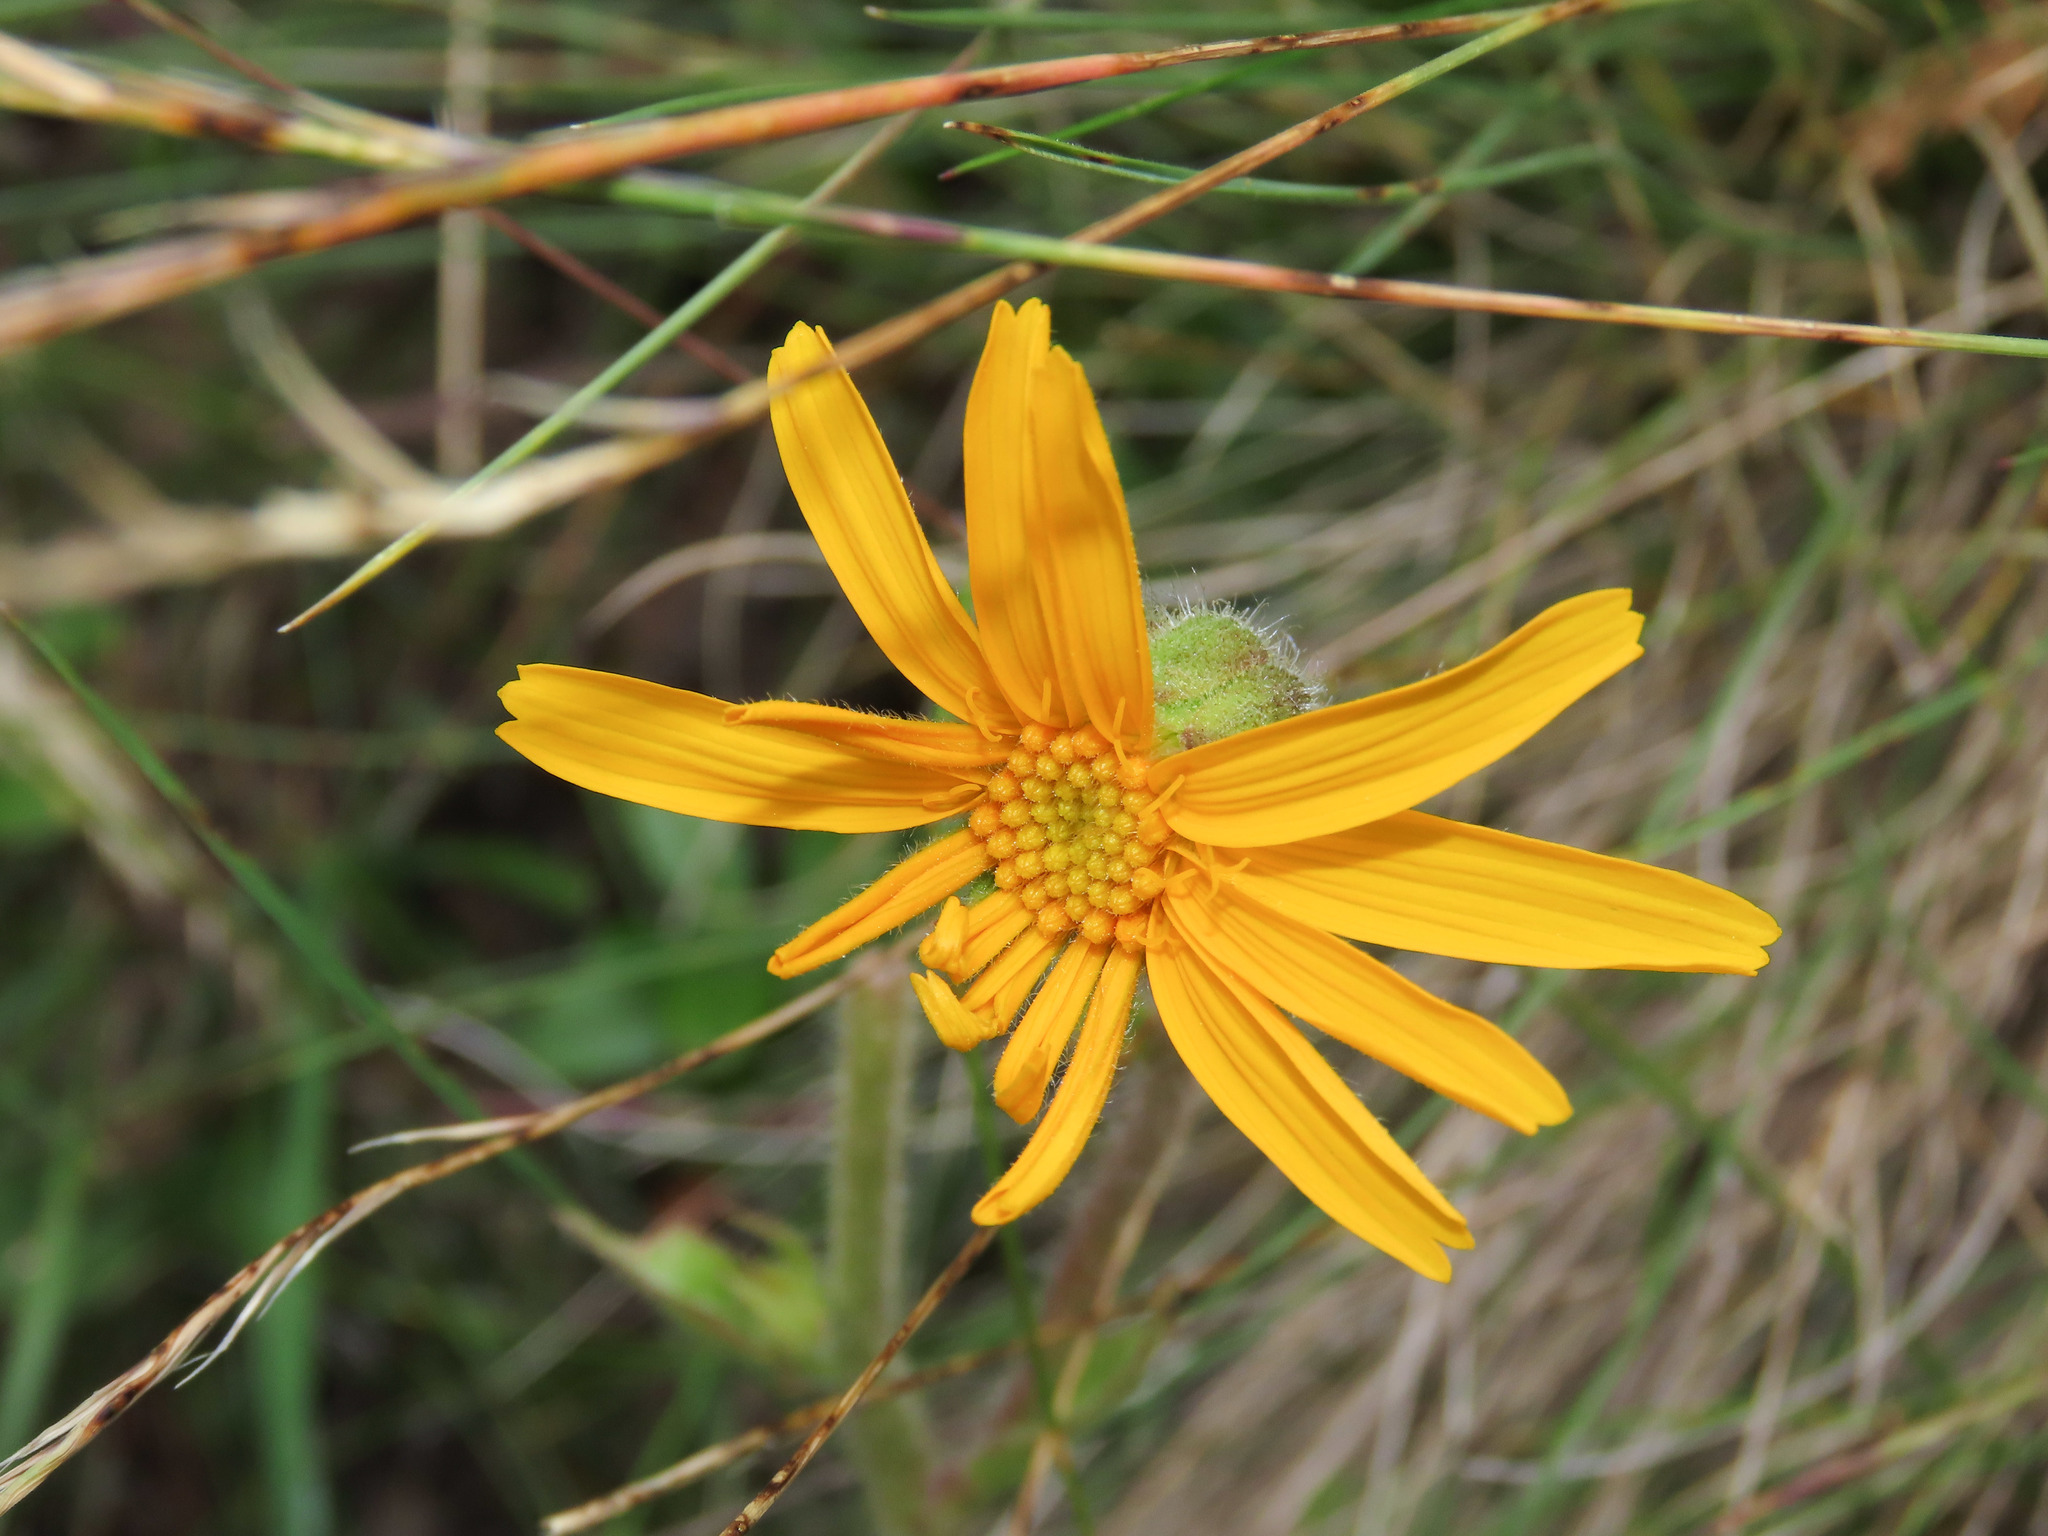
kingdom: Plantae
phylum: Tracheophyta
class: Magnoliopsida
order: Asterales
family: Asteraceae
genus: Arnica
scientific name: Arnica montana
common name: Leopard's bane
